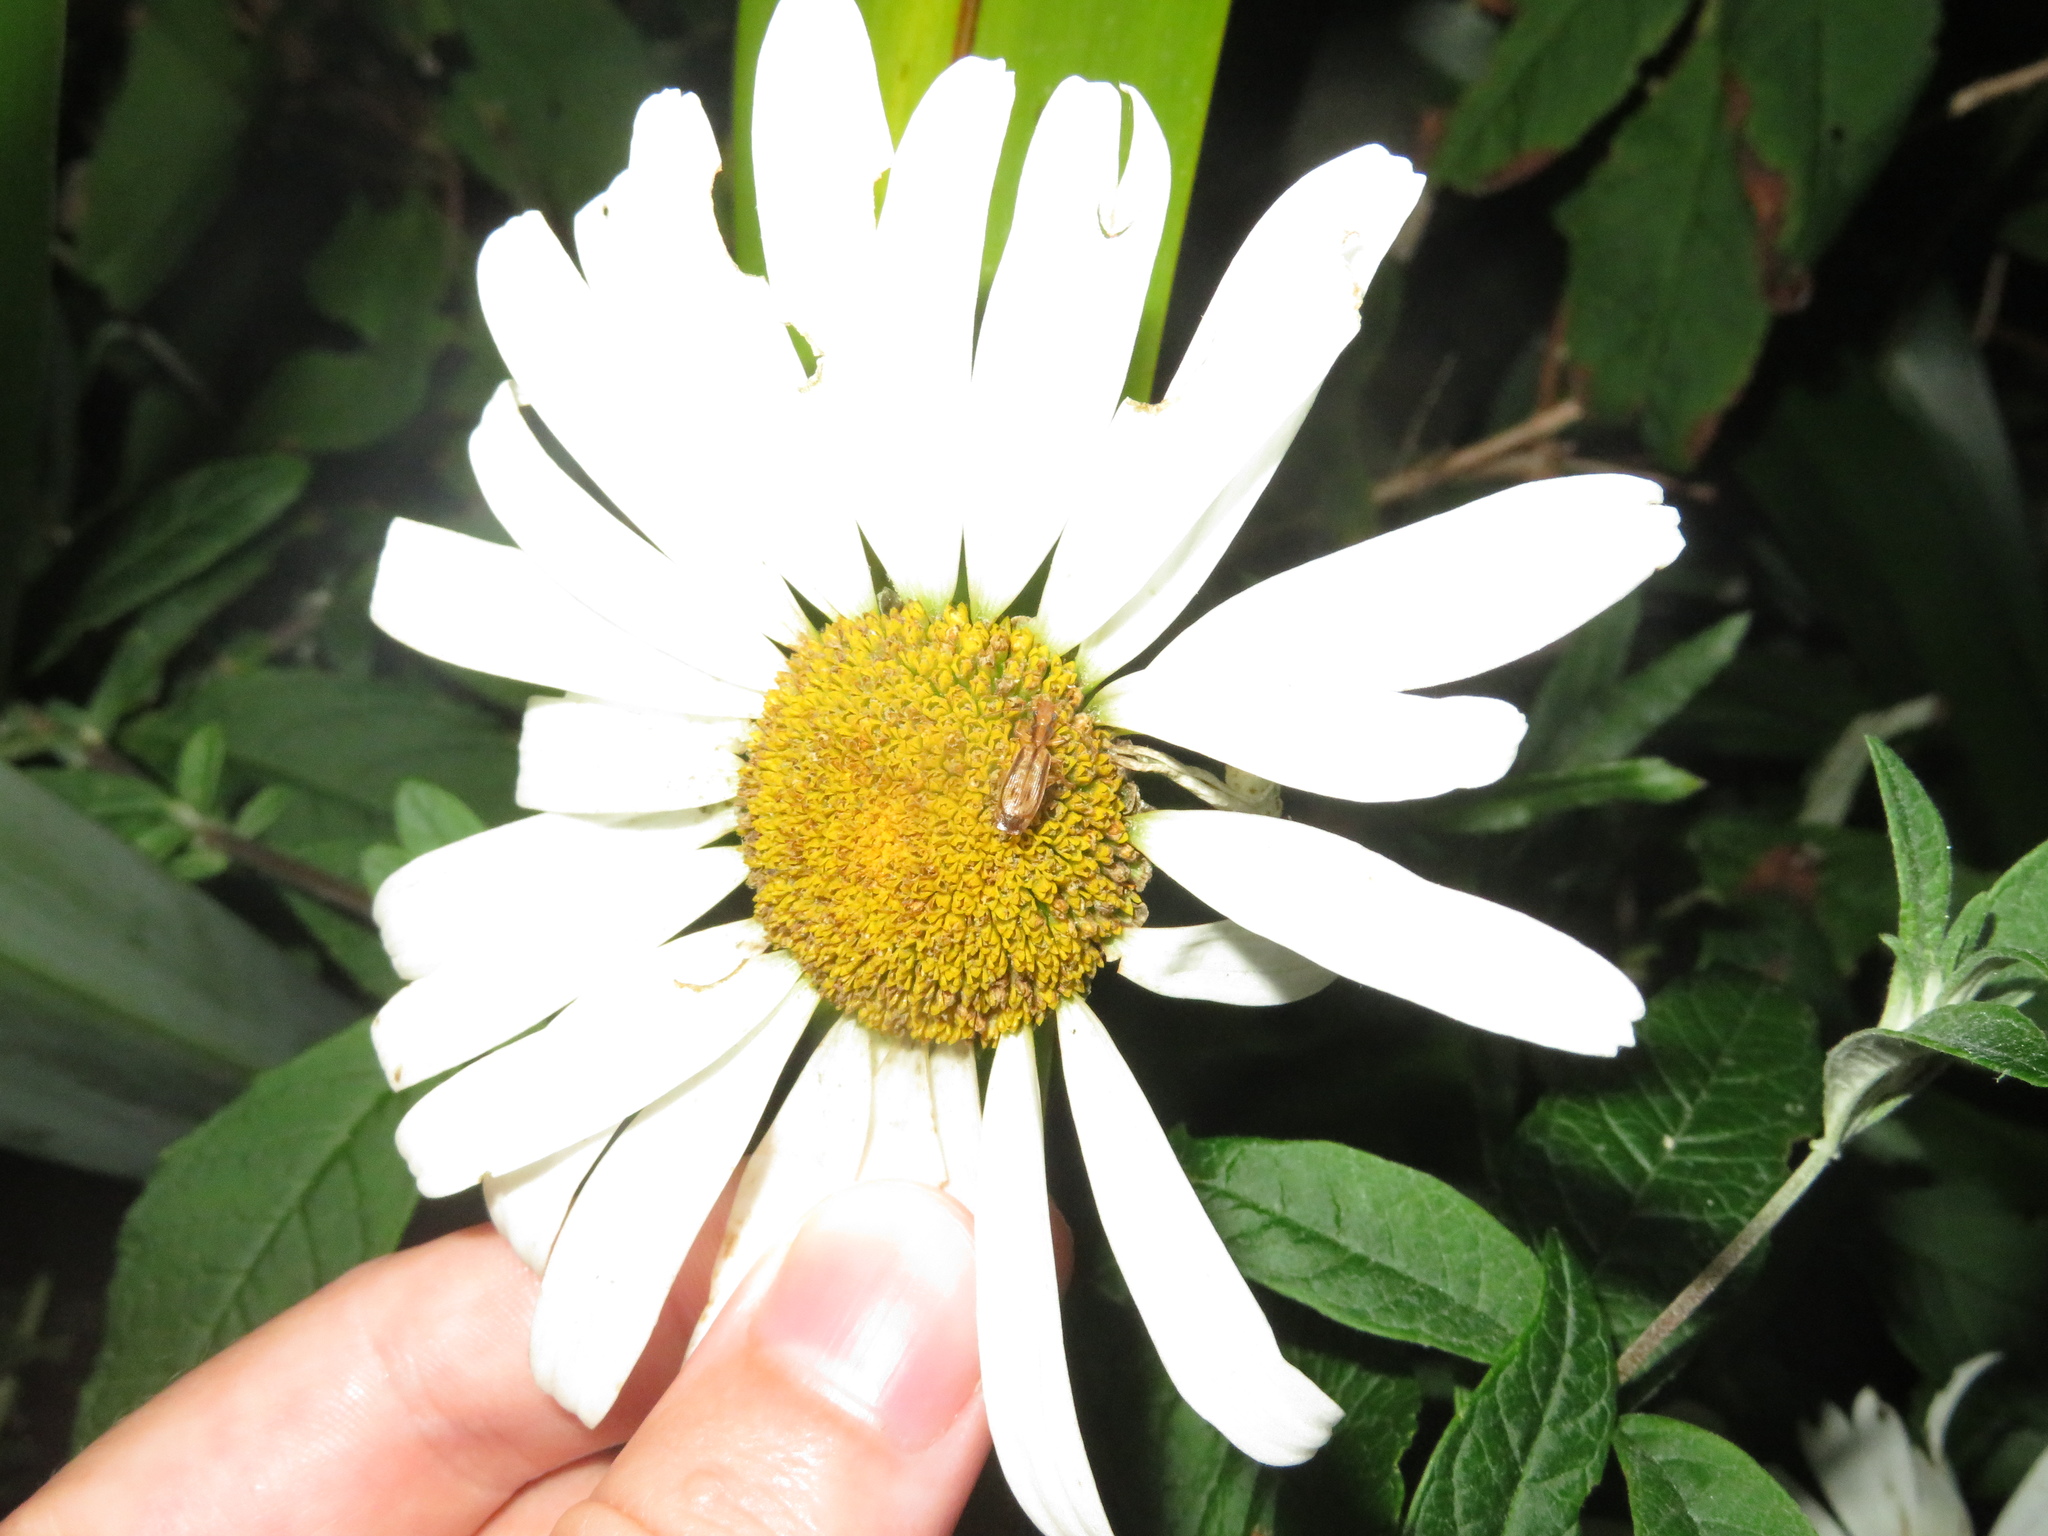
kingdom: Animalia
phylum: Arthropoda
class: Insecta
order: Coleoptera
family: Carabidae
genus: Demetrida
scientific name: Demetrida lineella
